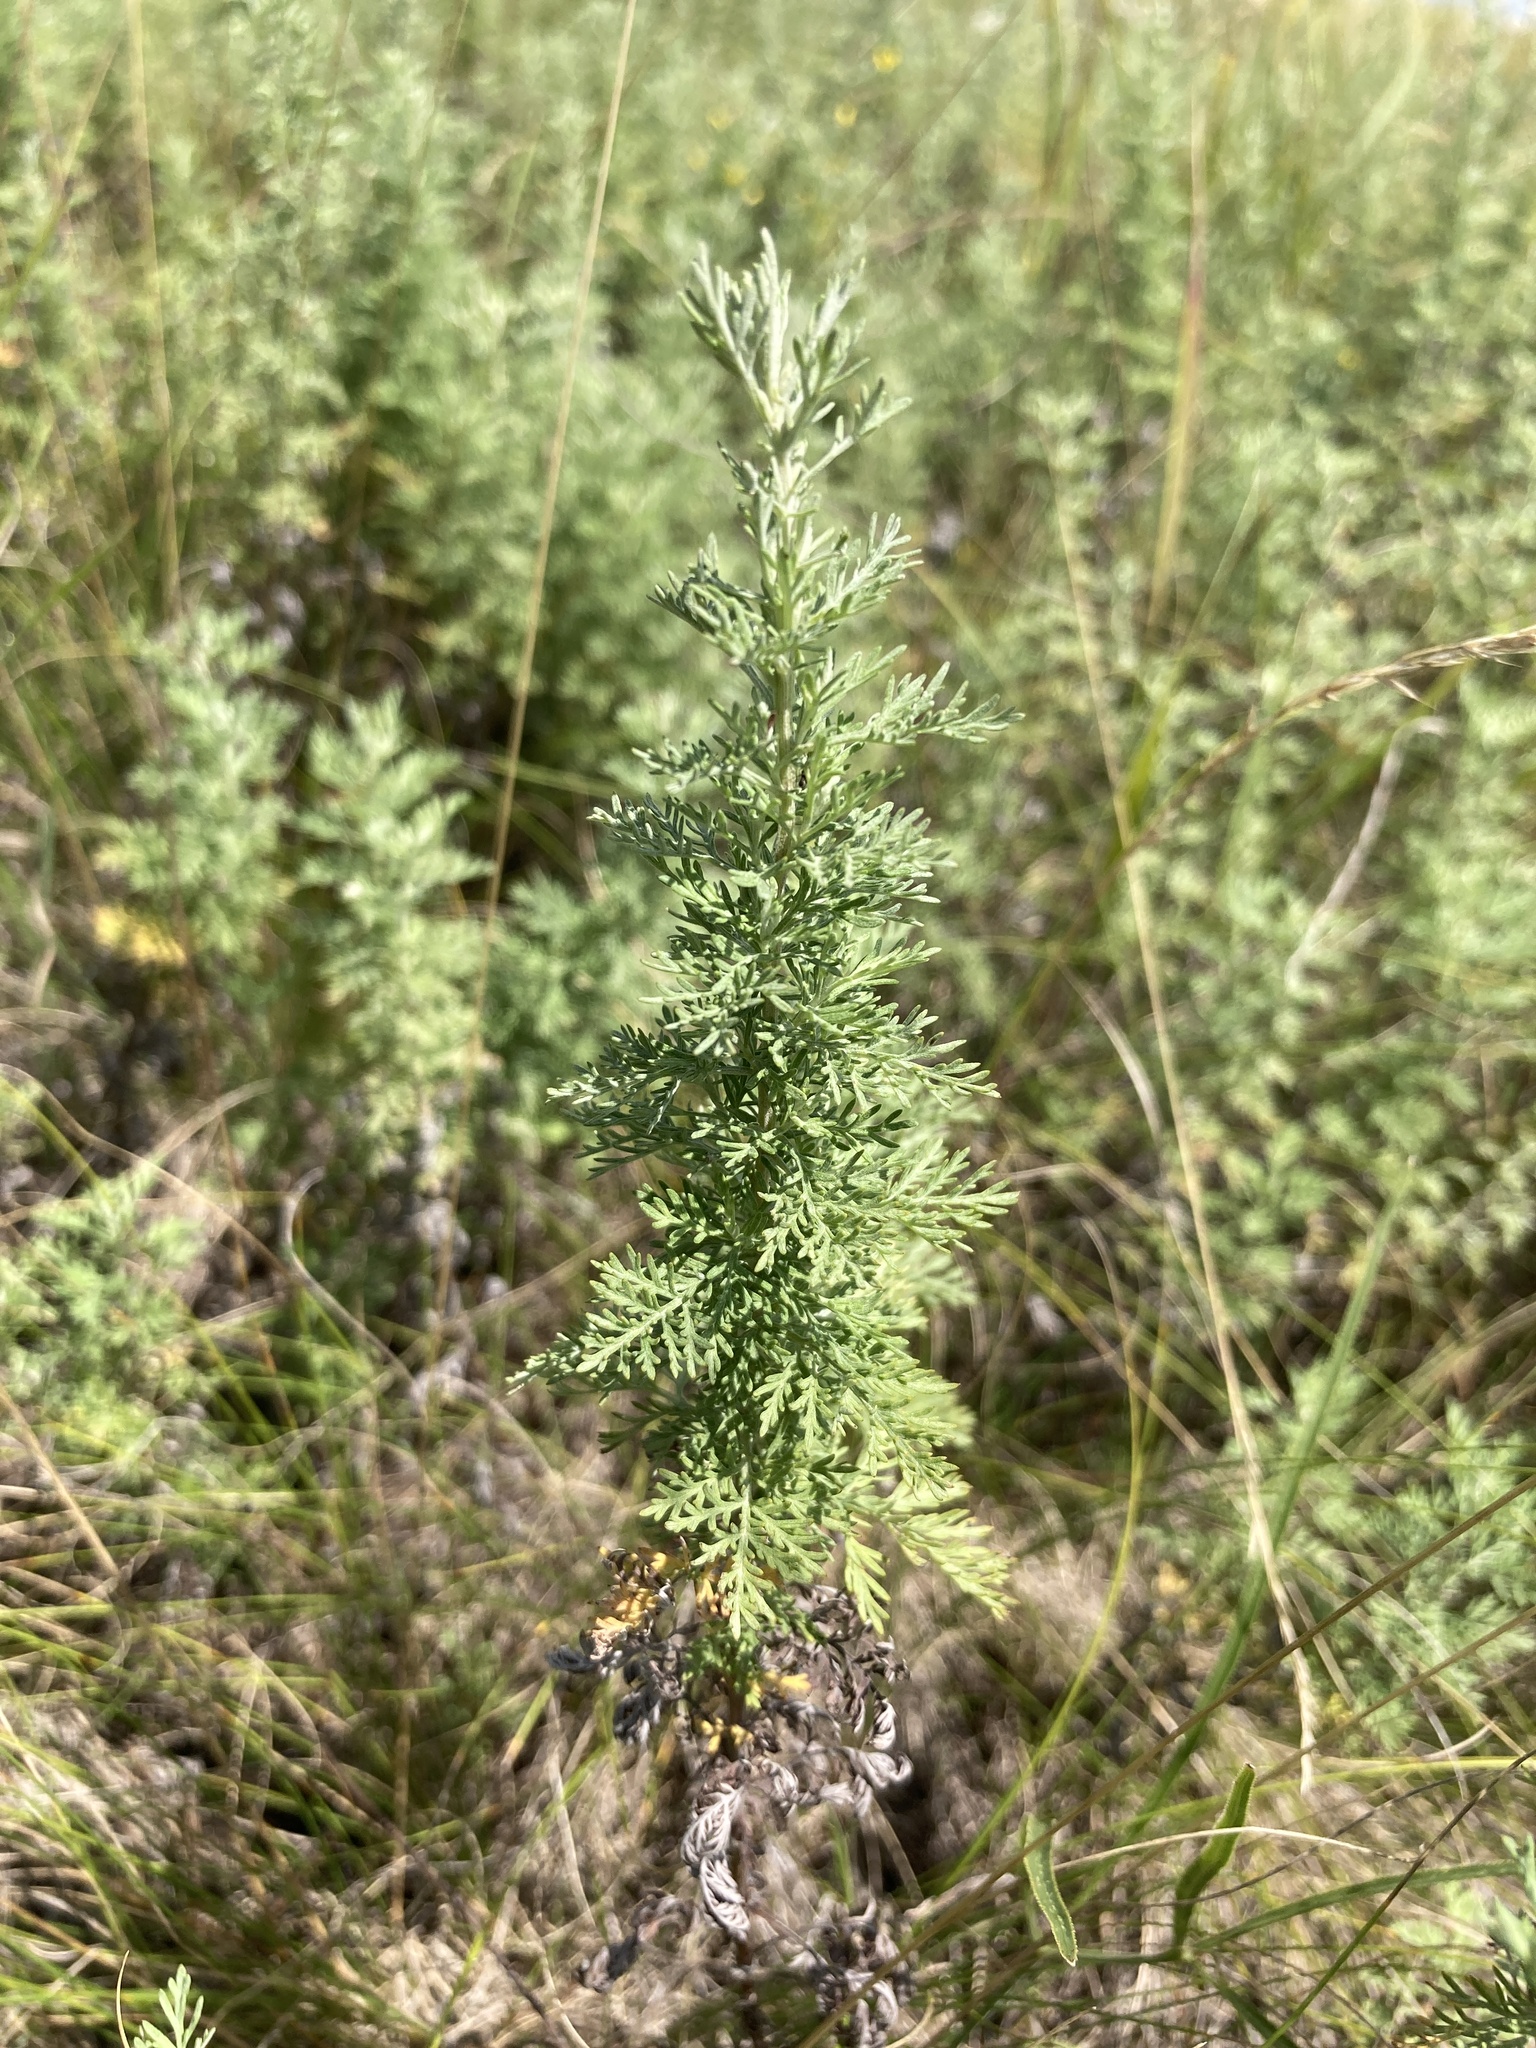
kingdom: Plantae
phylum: Tracheophyta
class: Magnoliopsida
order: Asterales
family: Asteraceae
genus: Artemisia
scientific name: Artemisia pontica
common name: Roman wormwood
